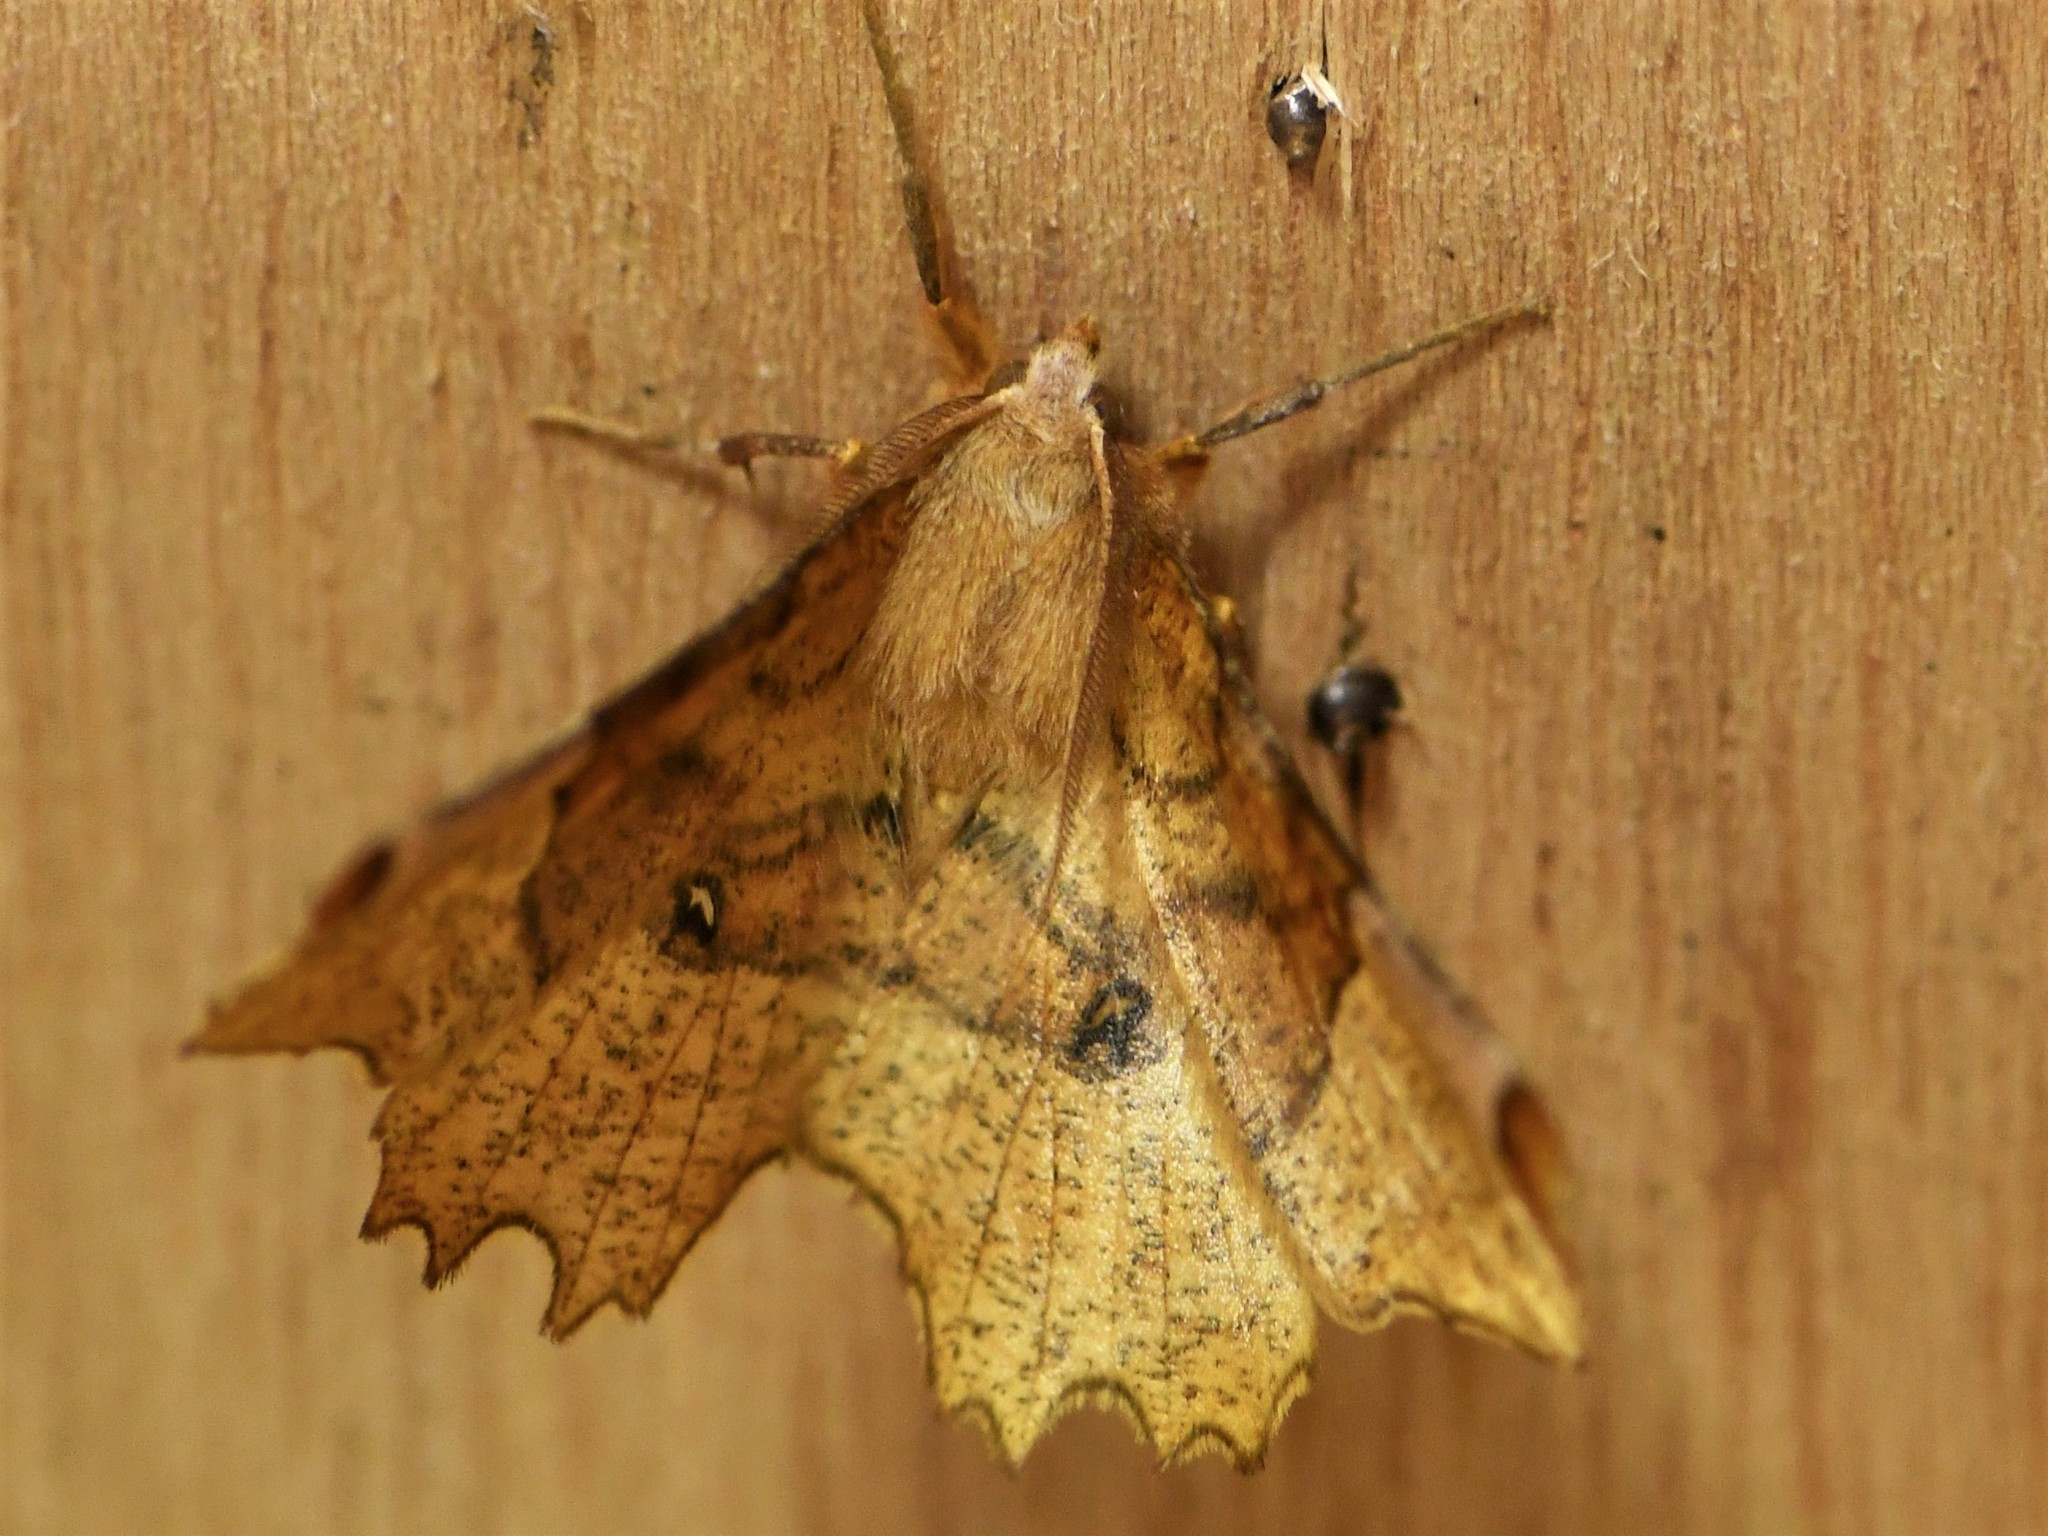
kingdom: Animalia
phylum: Arthropoda
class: Insecta
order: Lepidoptera
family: Geometridae
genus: Selenia
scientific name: Selenia lunularia
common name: Lunar thorn
